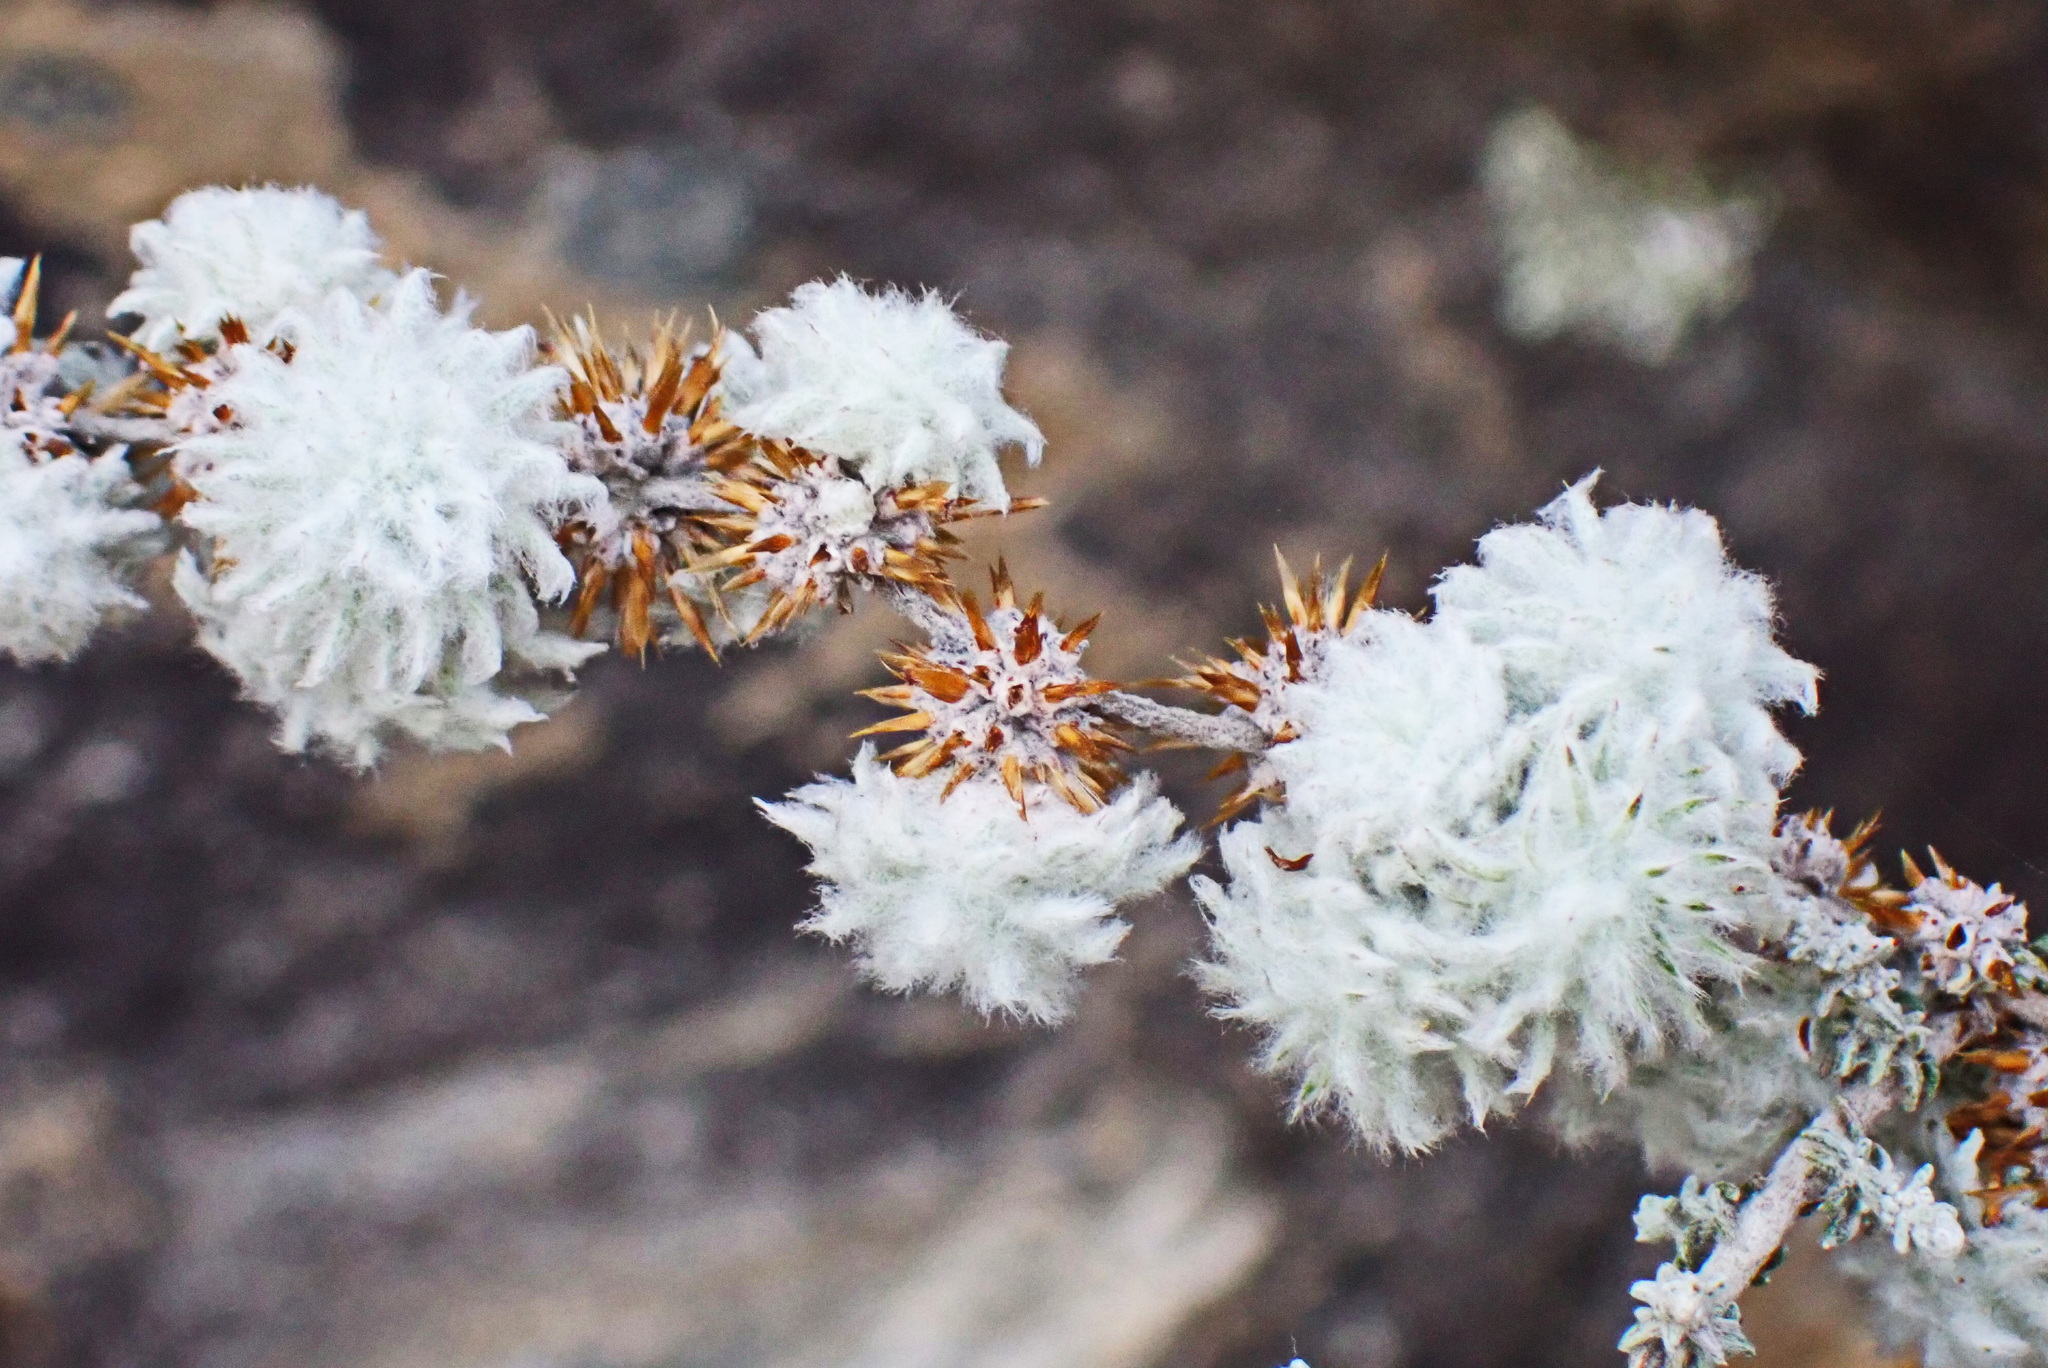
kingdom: Plantae
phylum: Tracheophyta
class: Magnoliopsida
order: Asterales
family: Asteraceae
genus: Seriphium
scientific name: Seriphium plumosum
